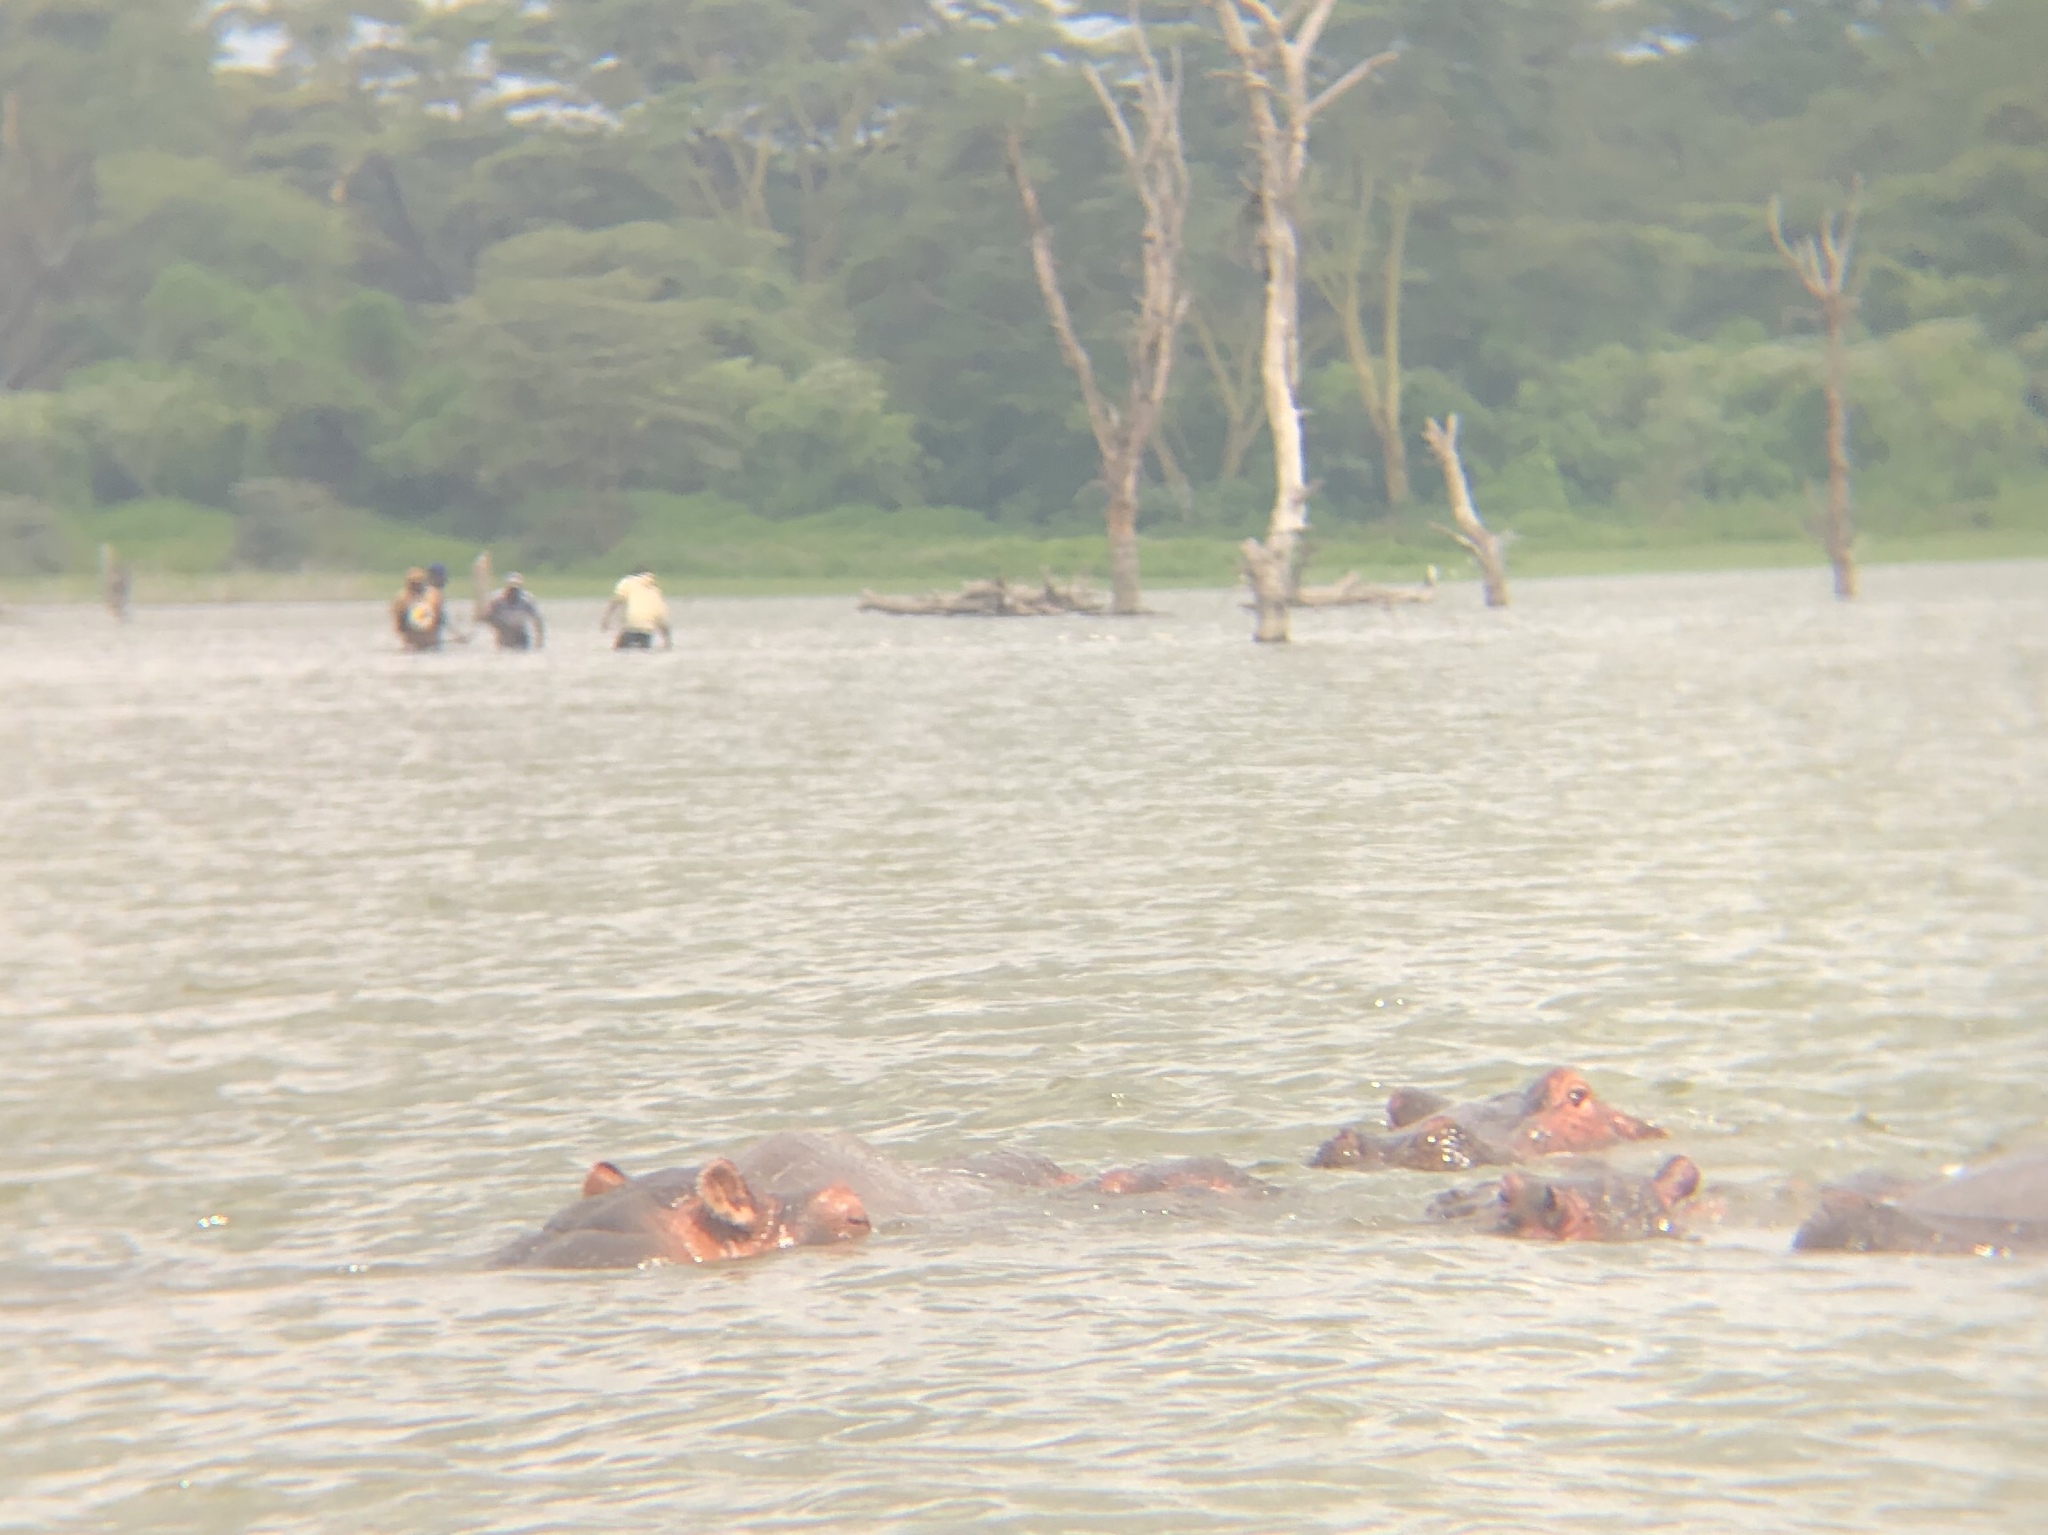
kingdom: Animalia
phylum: Chordata
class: Mammalia
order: Artiodactyla
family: Hippopotamidae
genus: Hippopotamus
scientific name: Hippopotamus amphibius
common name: Common hippopotamus
